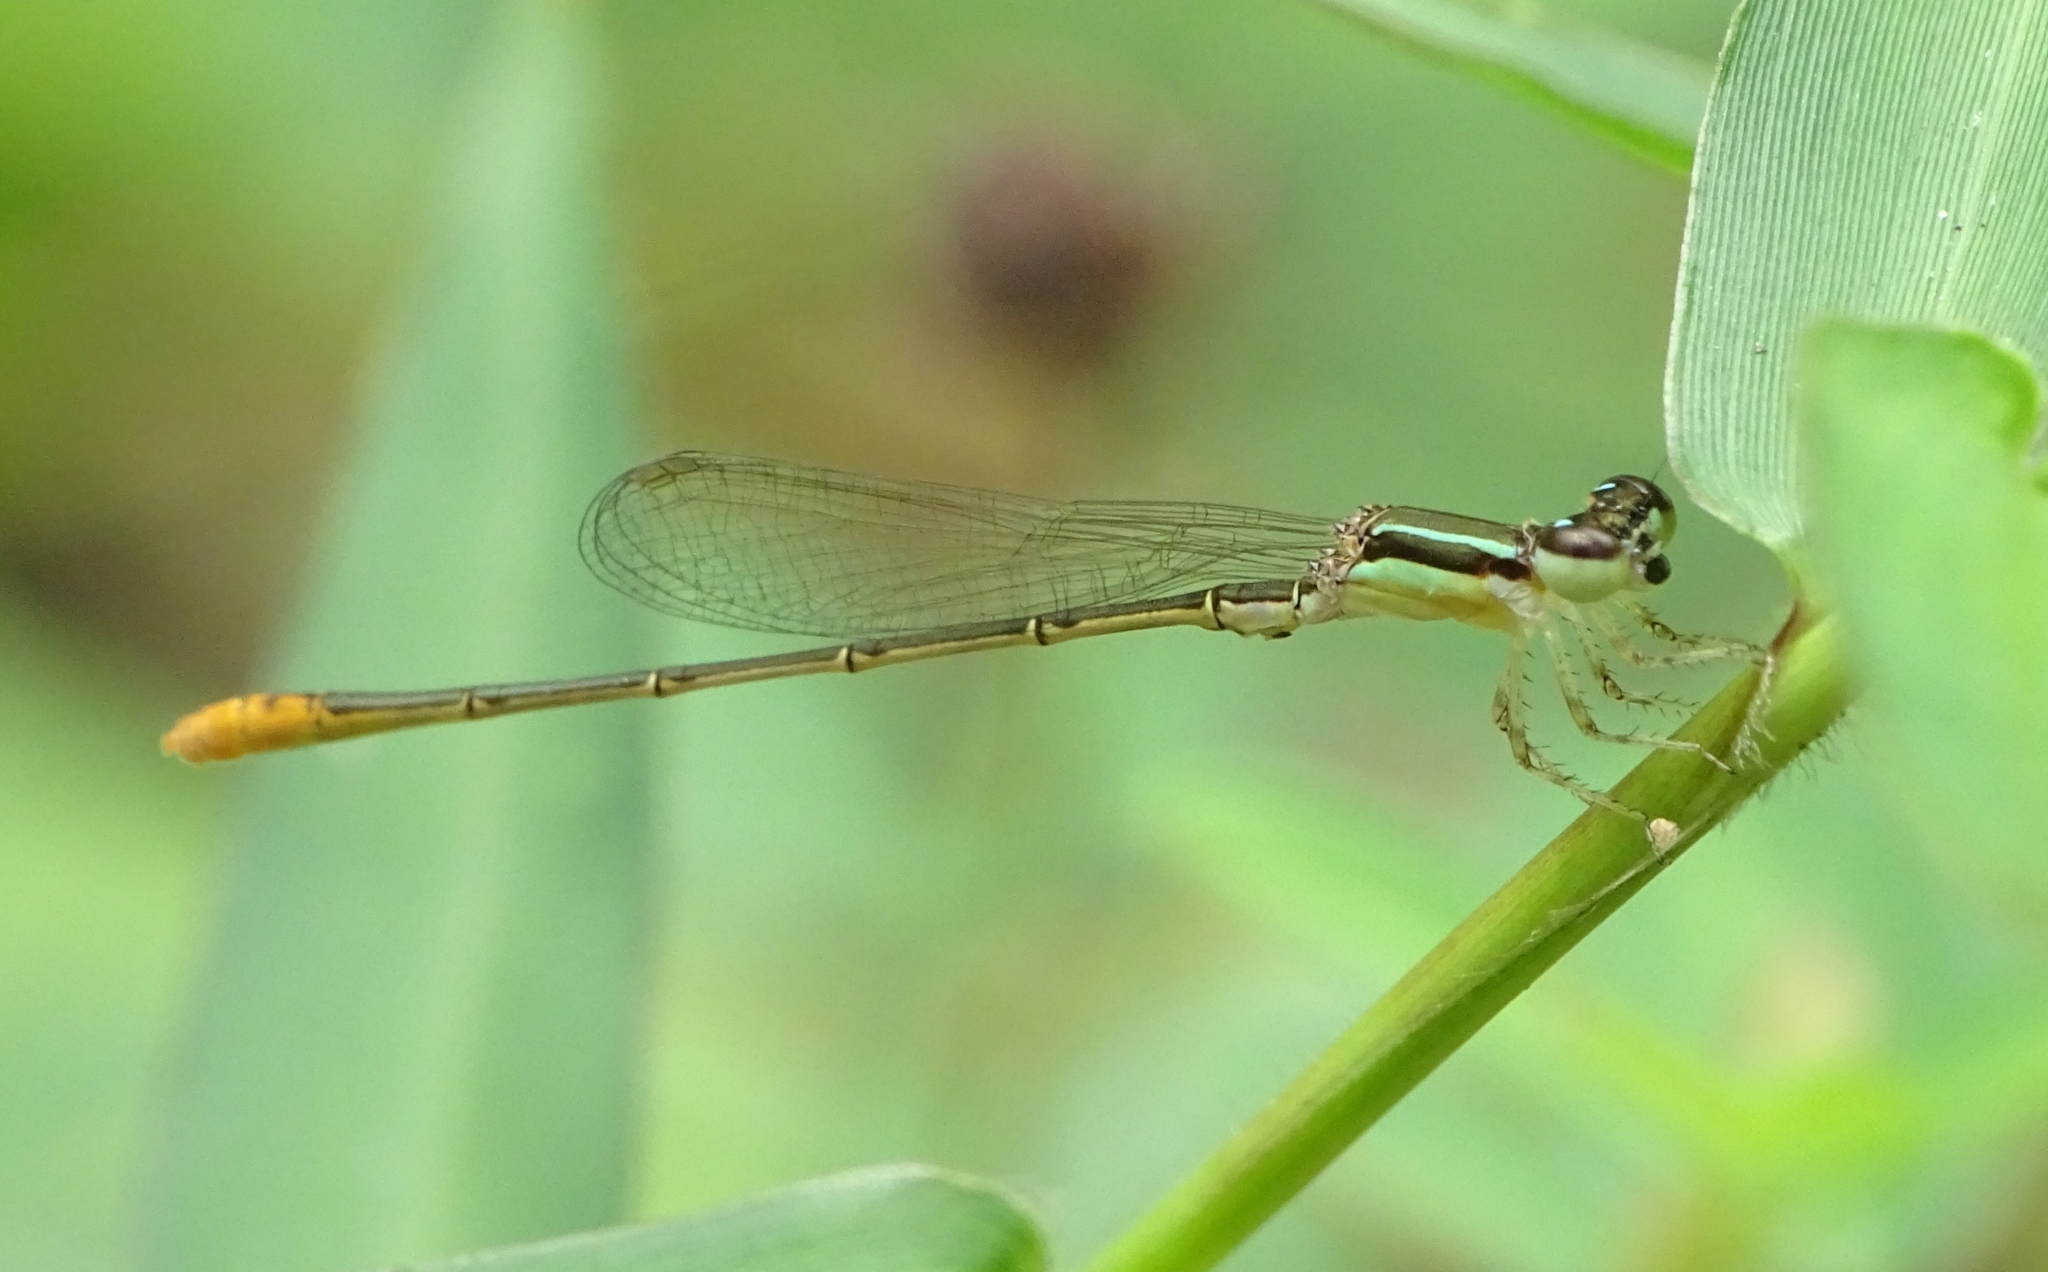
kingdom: Animalia
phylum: Arthropoda
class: Insecta
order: Odonata
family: Coenagrionidae
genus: Agriocnemis
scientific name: Agriocnemis pygmaea
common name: Pygmy wisp
